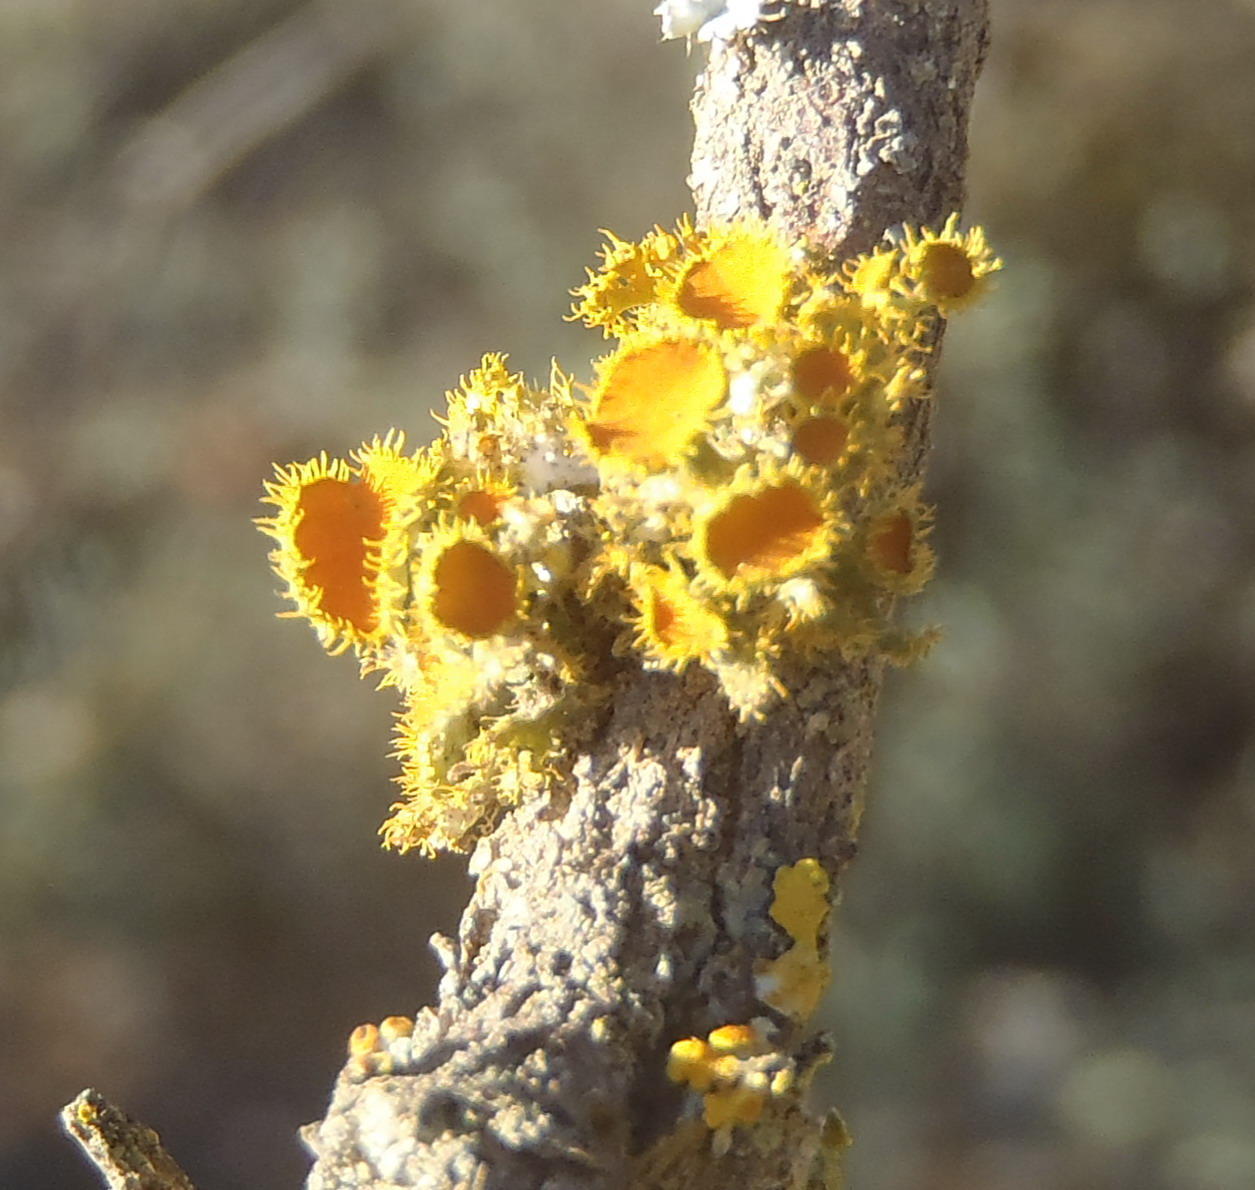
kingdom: Fungi
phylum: Ascomycota
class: Lecanoromycetes
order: Teloschistales
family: Teloschistaceae
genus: Niorma
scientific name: Niorma chrysophthalma
